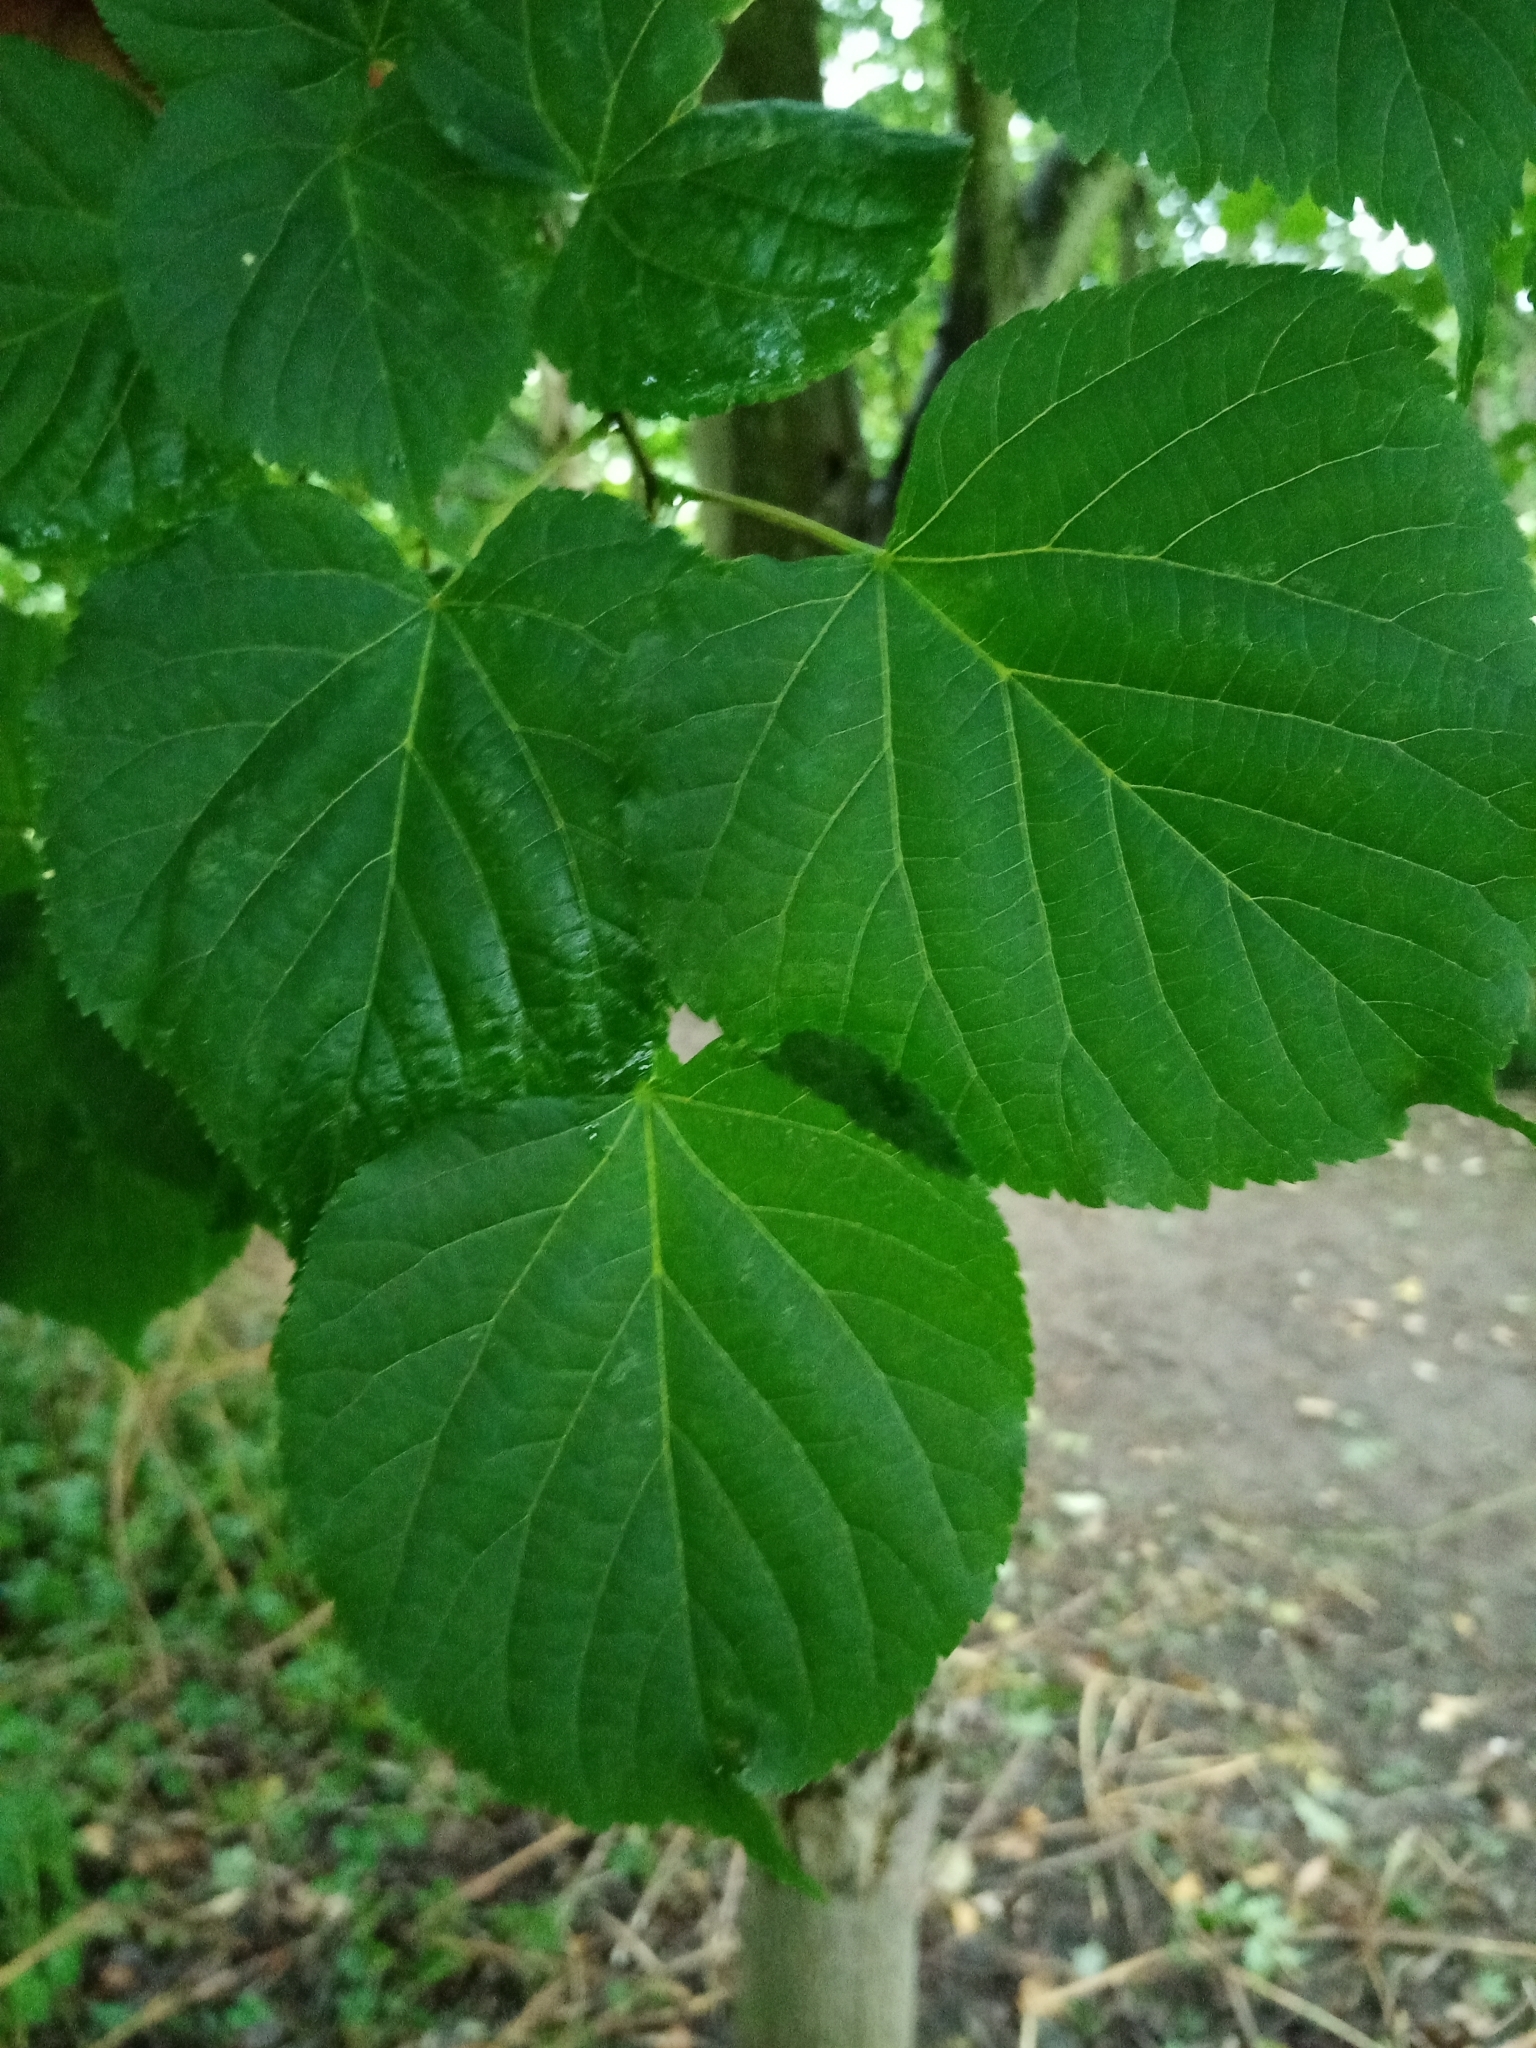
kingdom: Plantae
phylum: Tracheophyta
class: Magnoliopsida
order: Malvales
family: Malvaceae
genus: Tilia
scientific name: Tilia cordata
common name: Small-leaved lime
